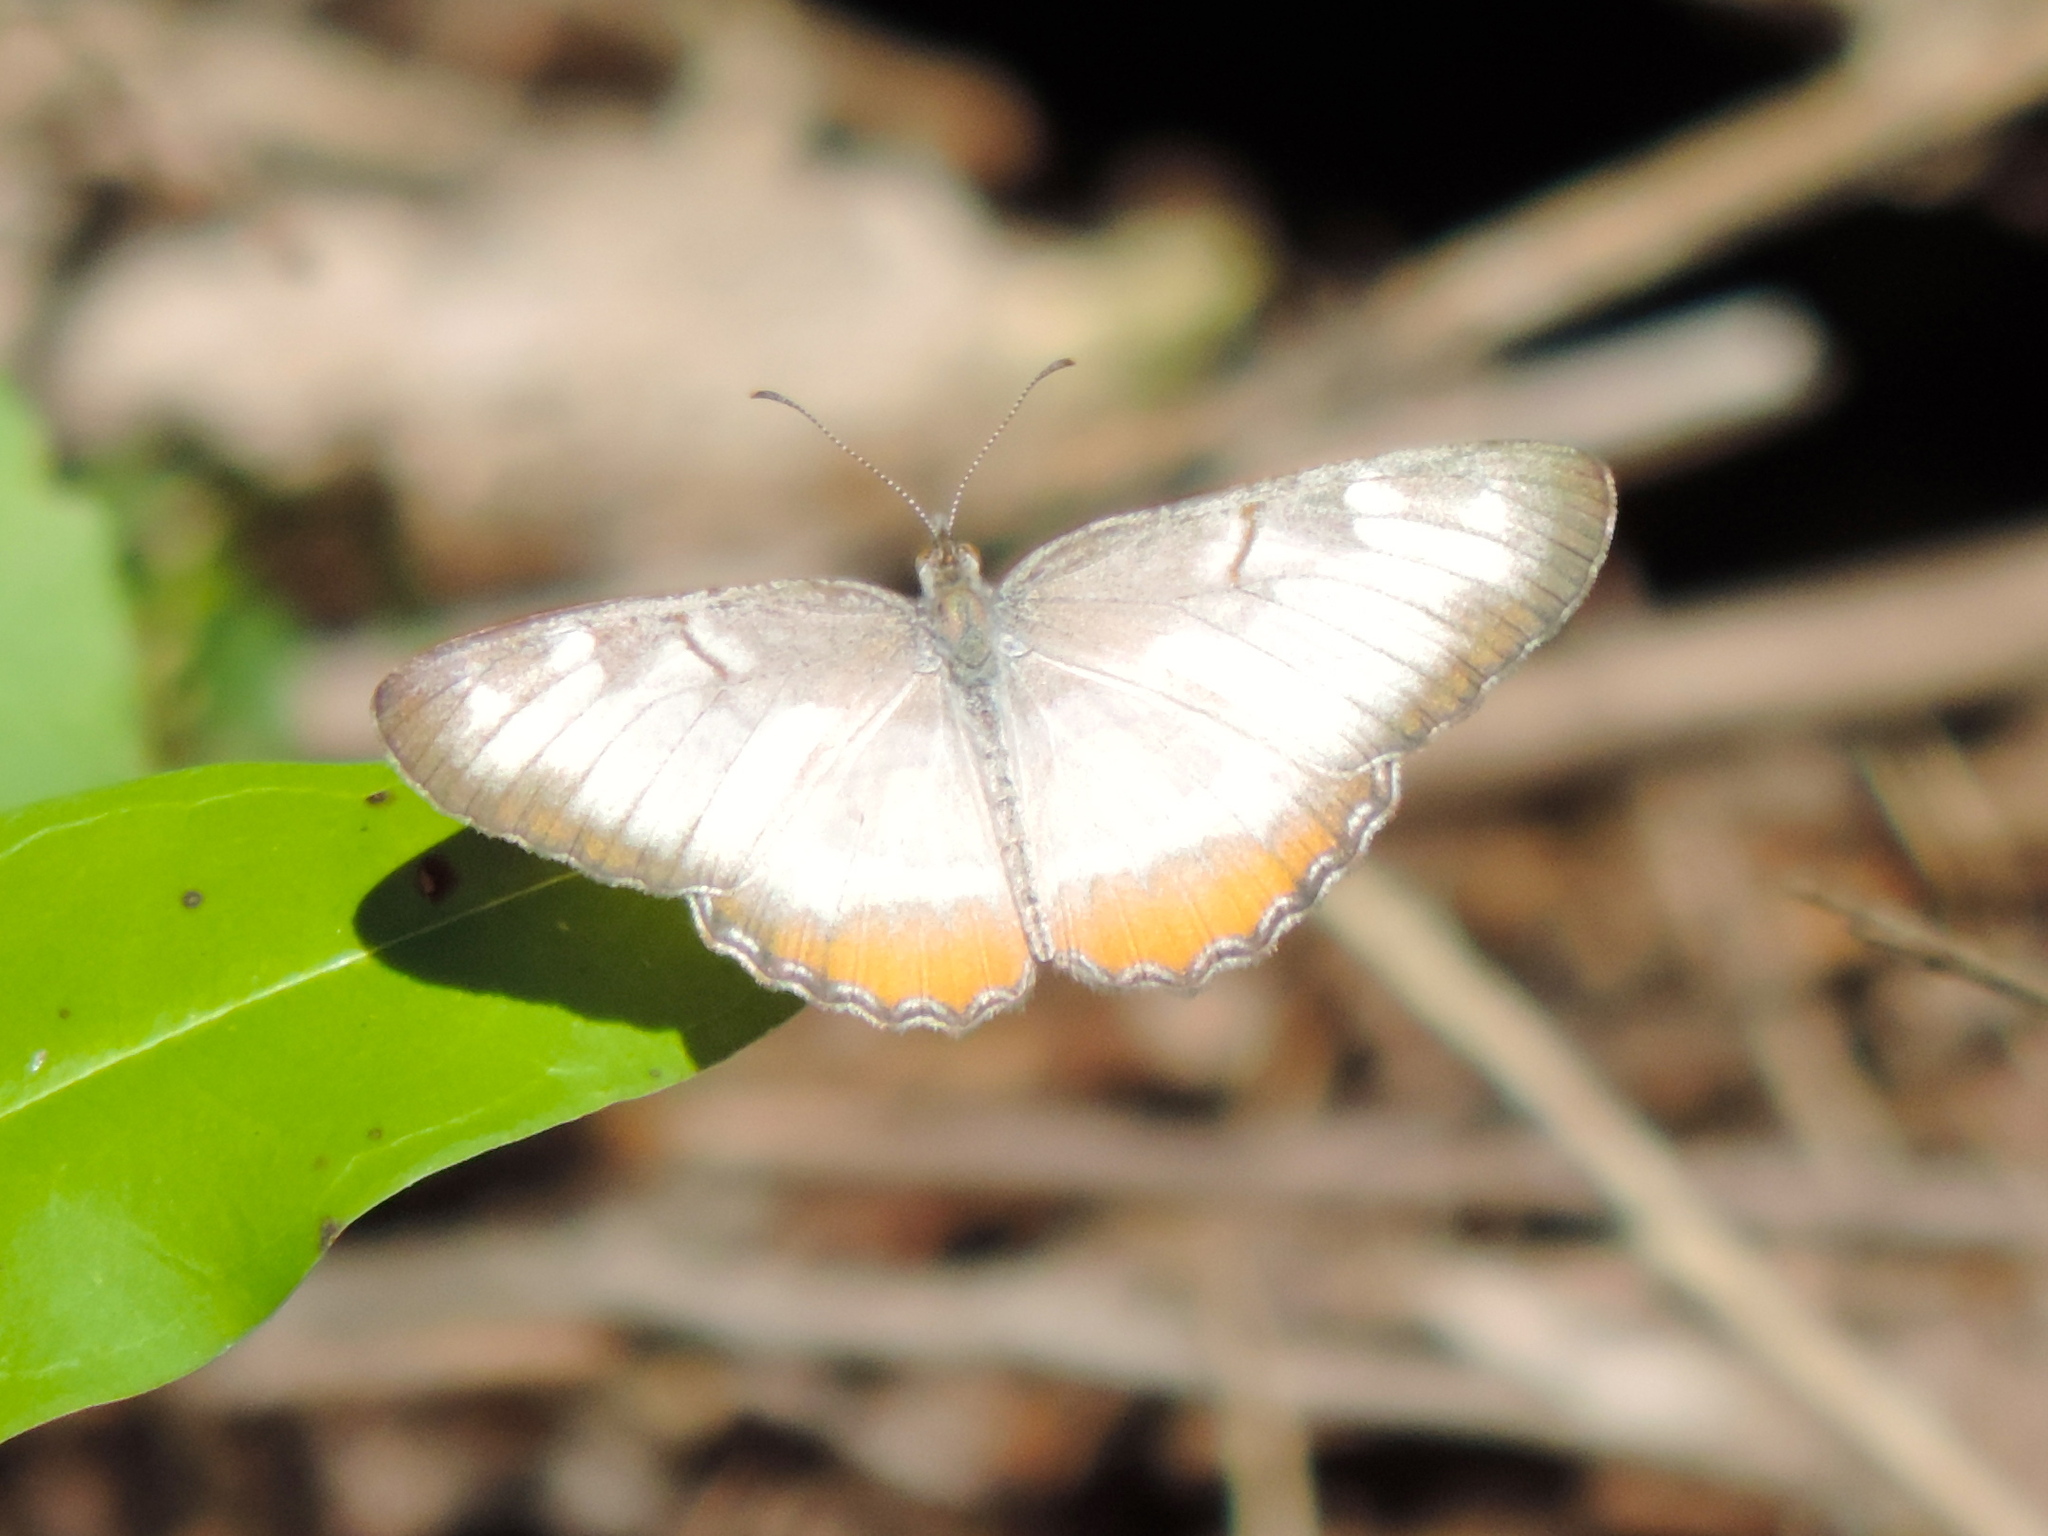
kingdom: Animalia
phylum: Arthropoda
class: Insecta
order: Lepidoptera
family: Nymphalidae
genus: Mestra
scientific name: Mestra amymone
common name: Common mestra
